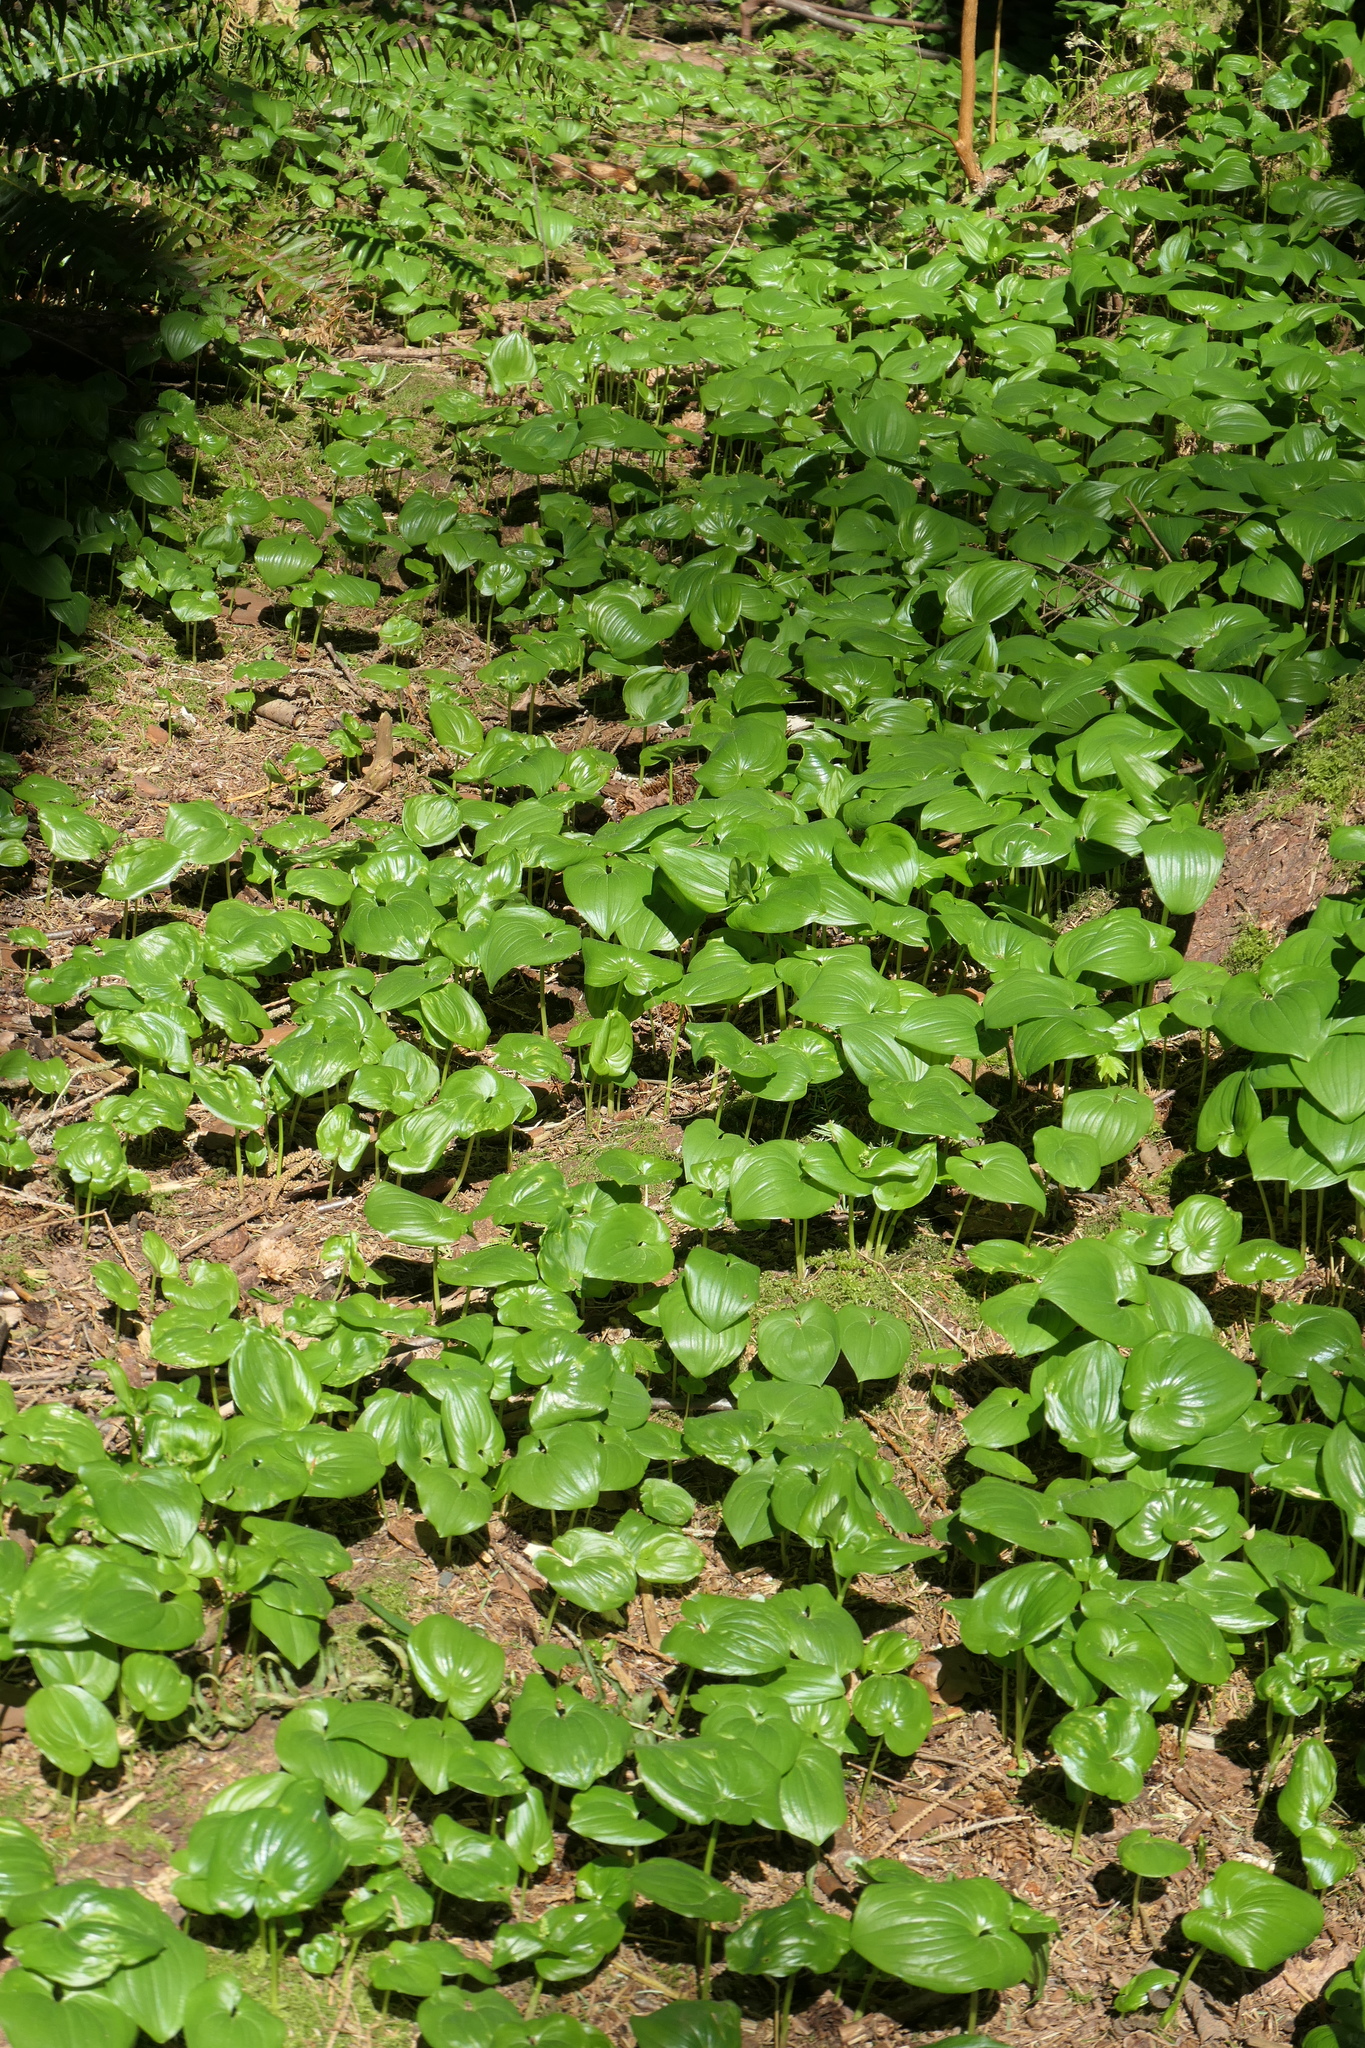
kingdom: Plantae
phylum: Tracheophyta
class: Liliopsida
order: Asparagales
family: Asparagaceae
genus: Maianthemum
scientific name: Maianthemum dilatatum
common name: False lily-of-the-valley
